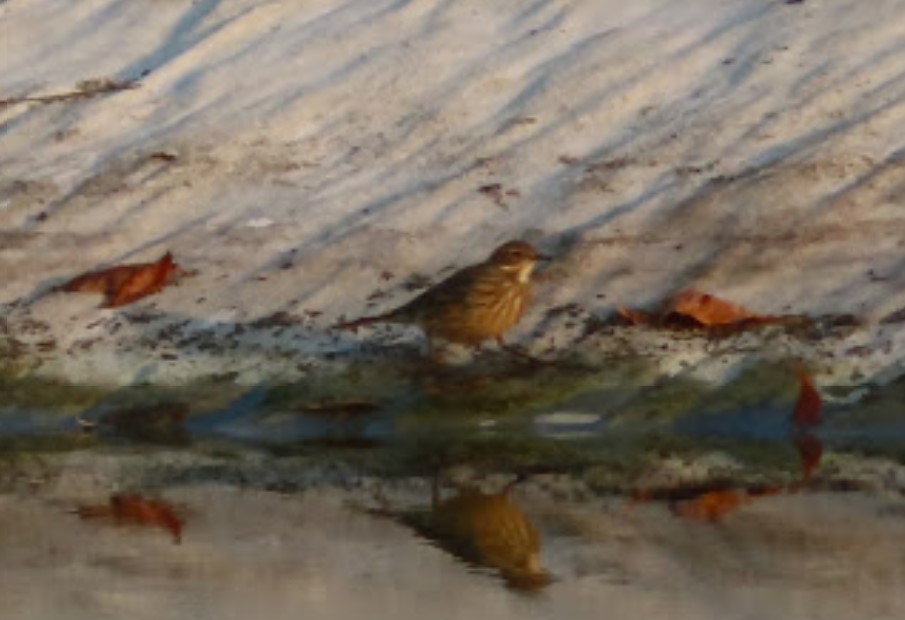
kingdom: Animalia
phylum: Chordata
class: Aves
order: Passeriformes
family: Motacillidae
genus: Anthus
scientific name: Anthus rubescens
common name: Buff-bellied pipit
